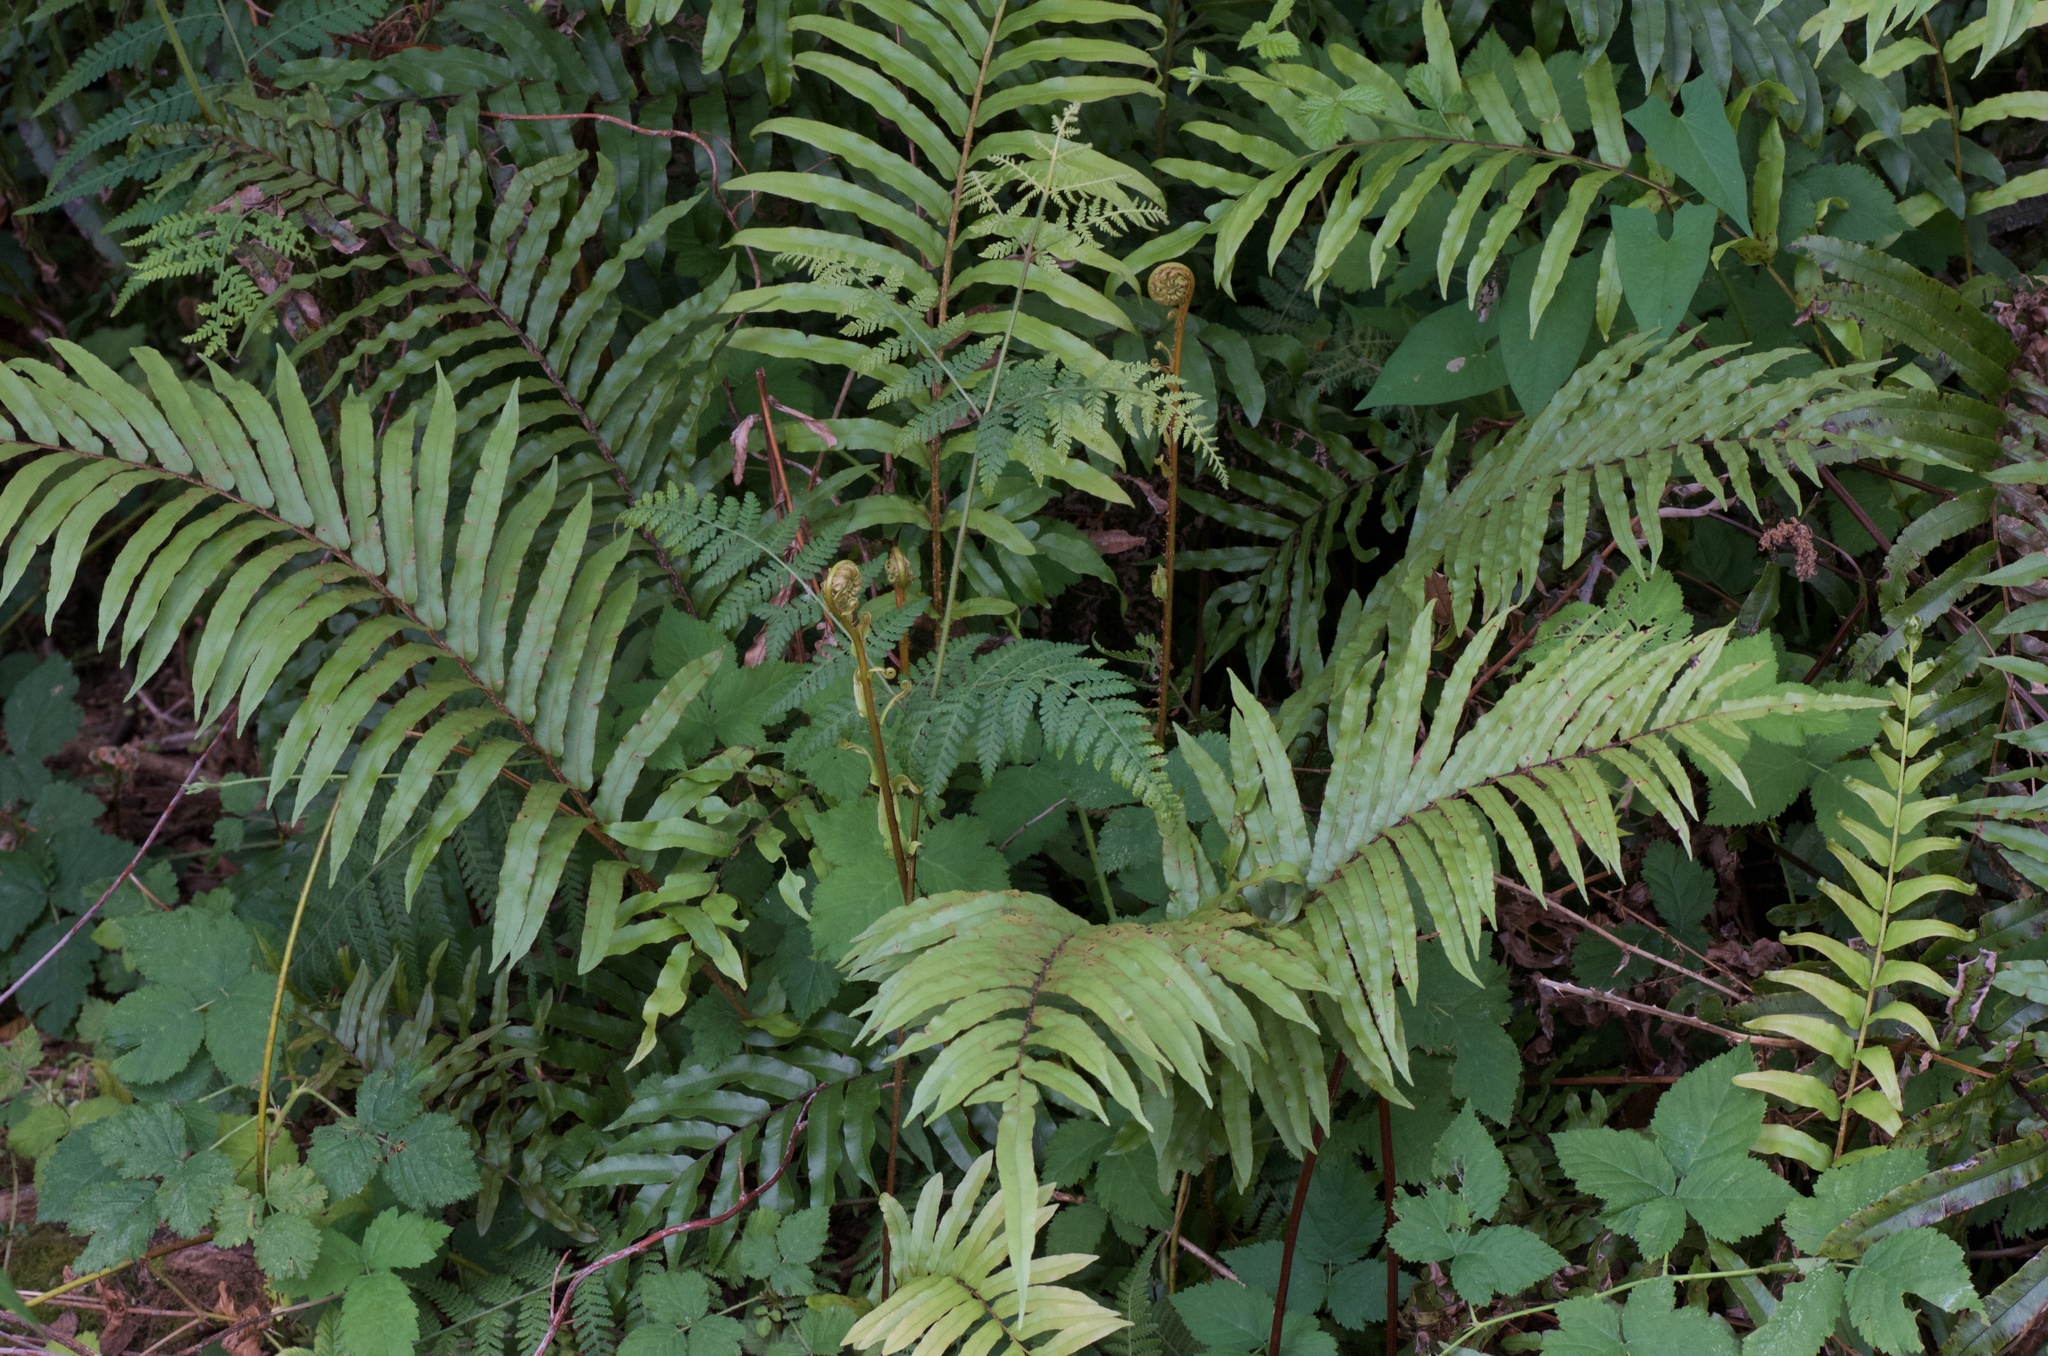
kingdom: Plantae
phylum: Tracheophyta
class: Polypodiopsida
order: Polypodiales
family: Blechnaceae
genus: Parablechnum
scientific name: Parablechnum minus
